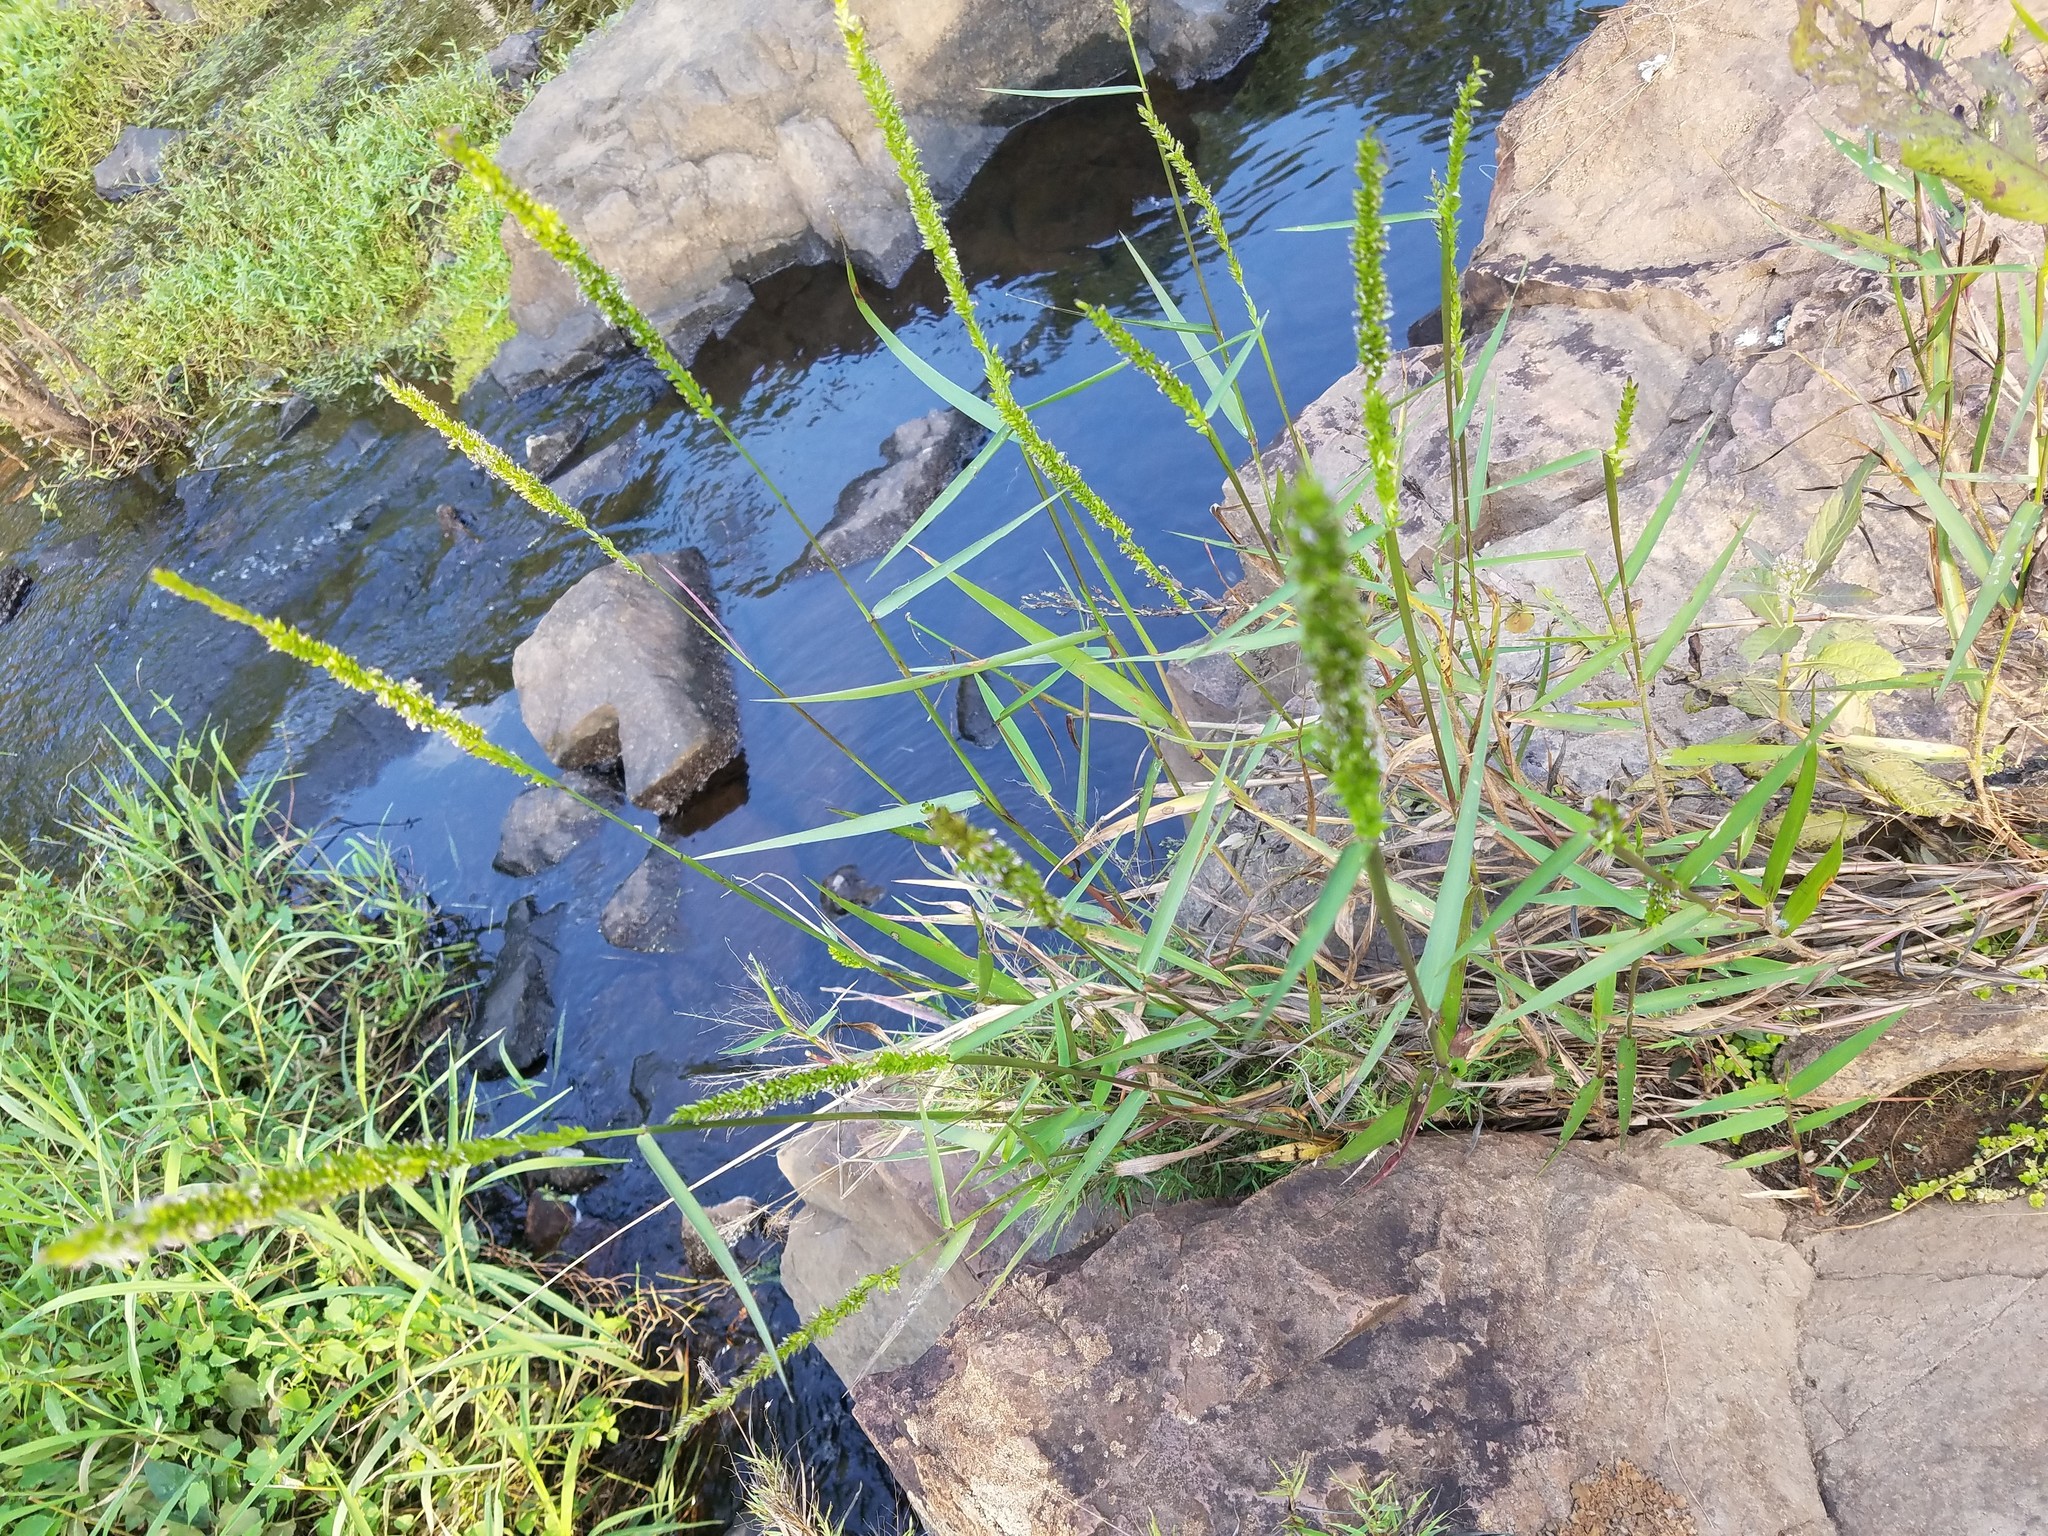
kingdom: Plantae
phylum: Tracheophyta
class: Liliopsida
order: Poales
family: Poaceae
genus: Sacciolepis
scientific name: Sacciolepis striata
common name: American cupscale
